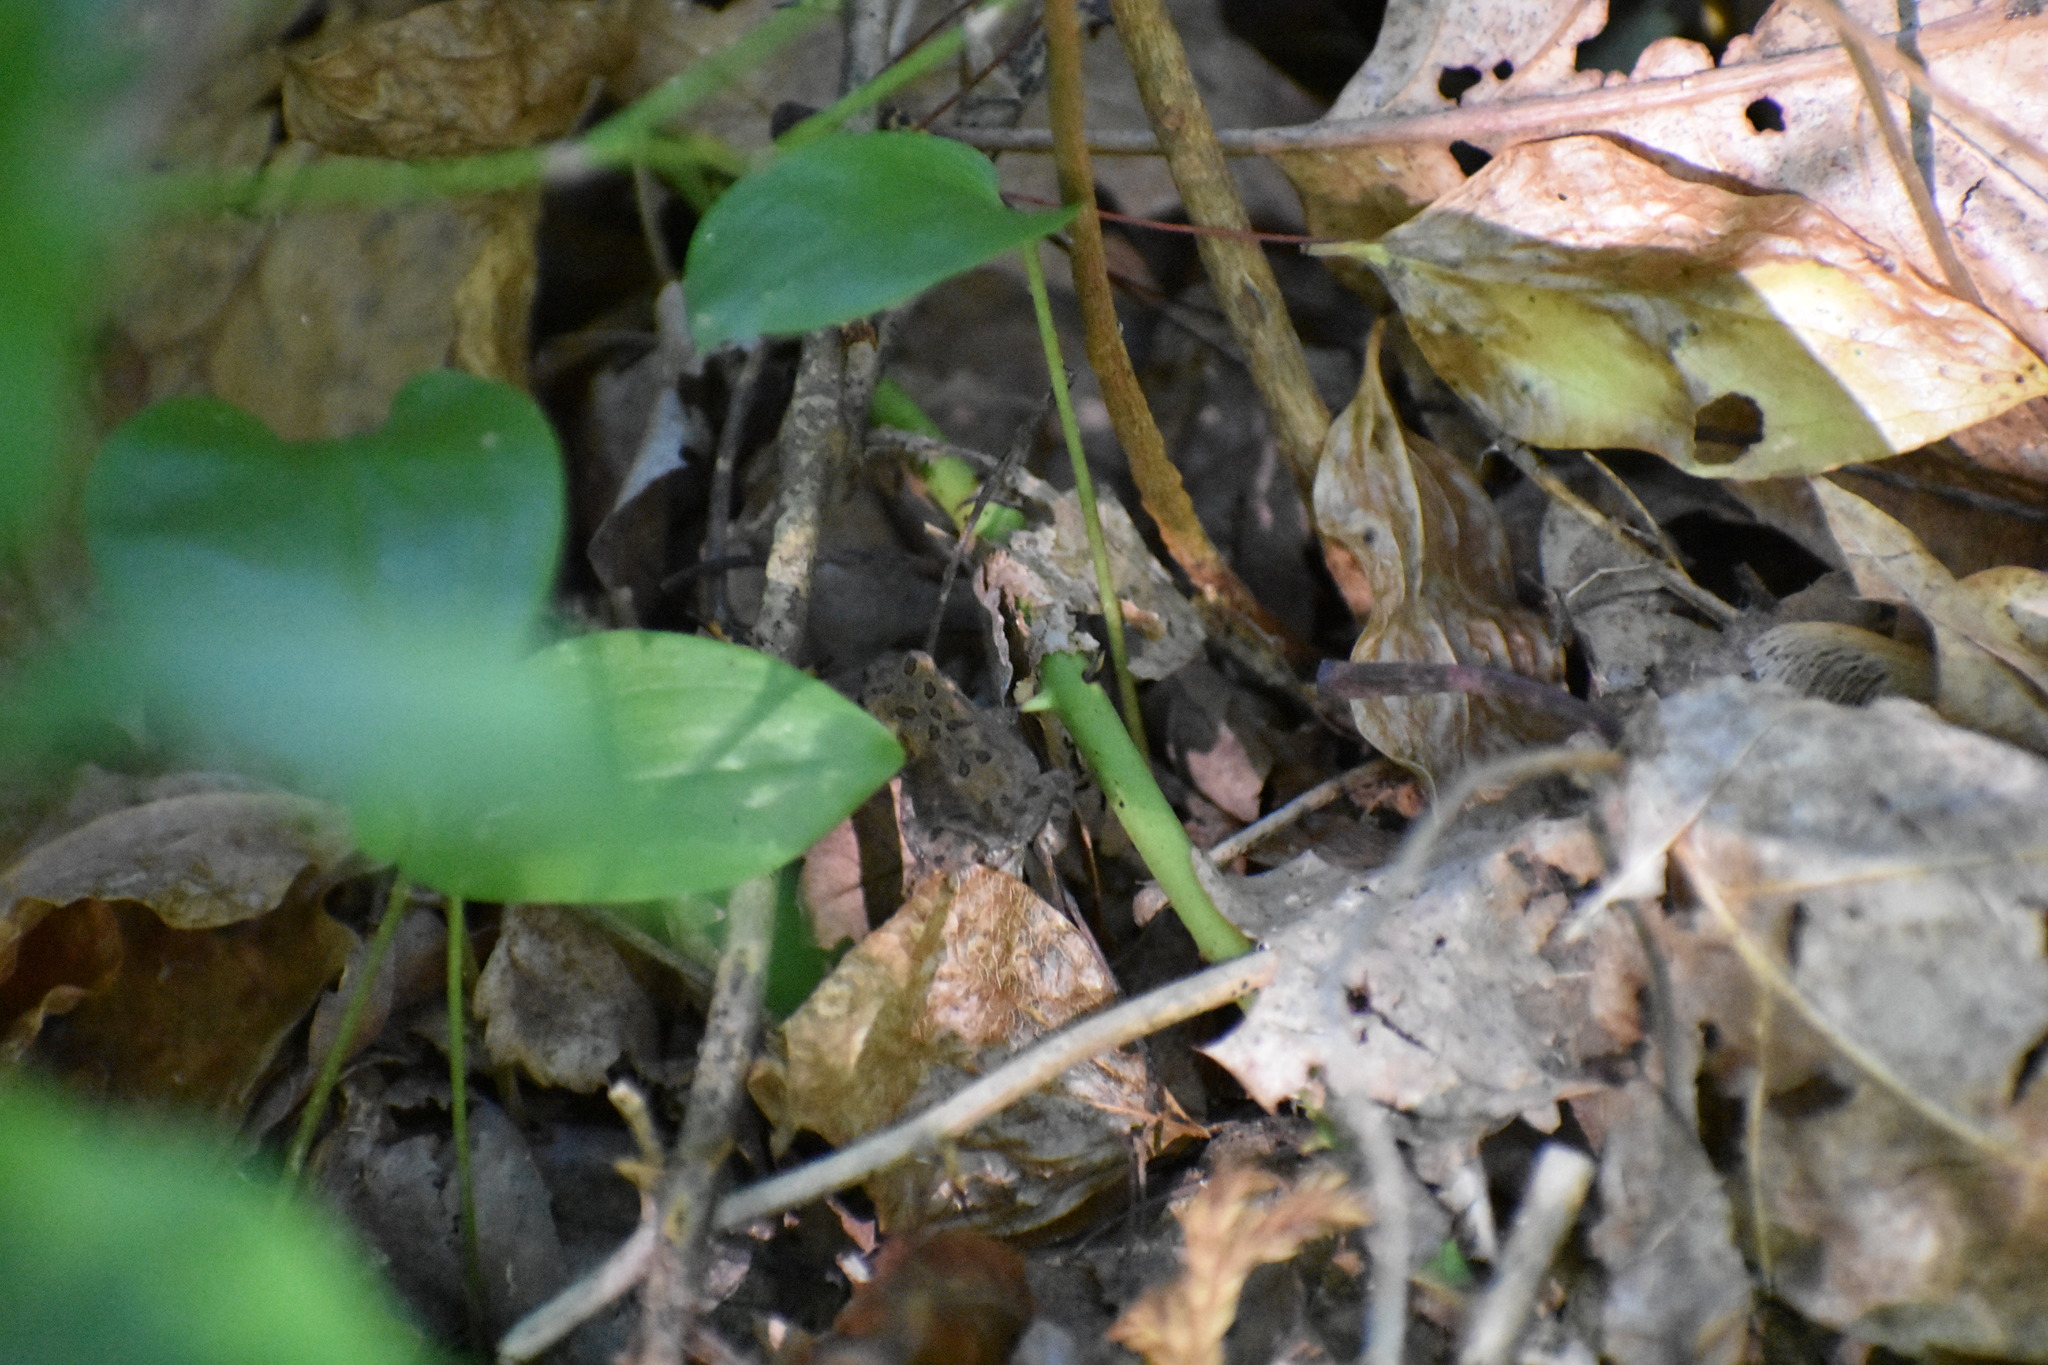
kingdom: Animalia
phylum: Chordata
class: Amphibia
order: Anura
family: Bufonidae
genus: Anaxyrus
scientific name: Anaxyrus americanus
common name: American toad
